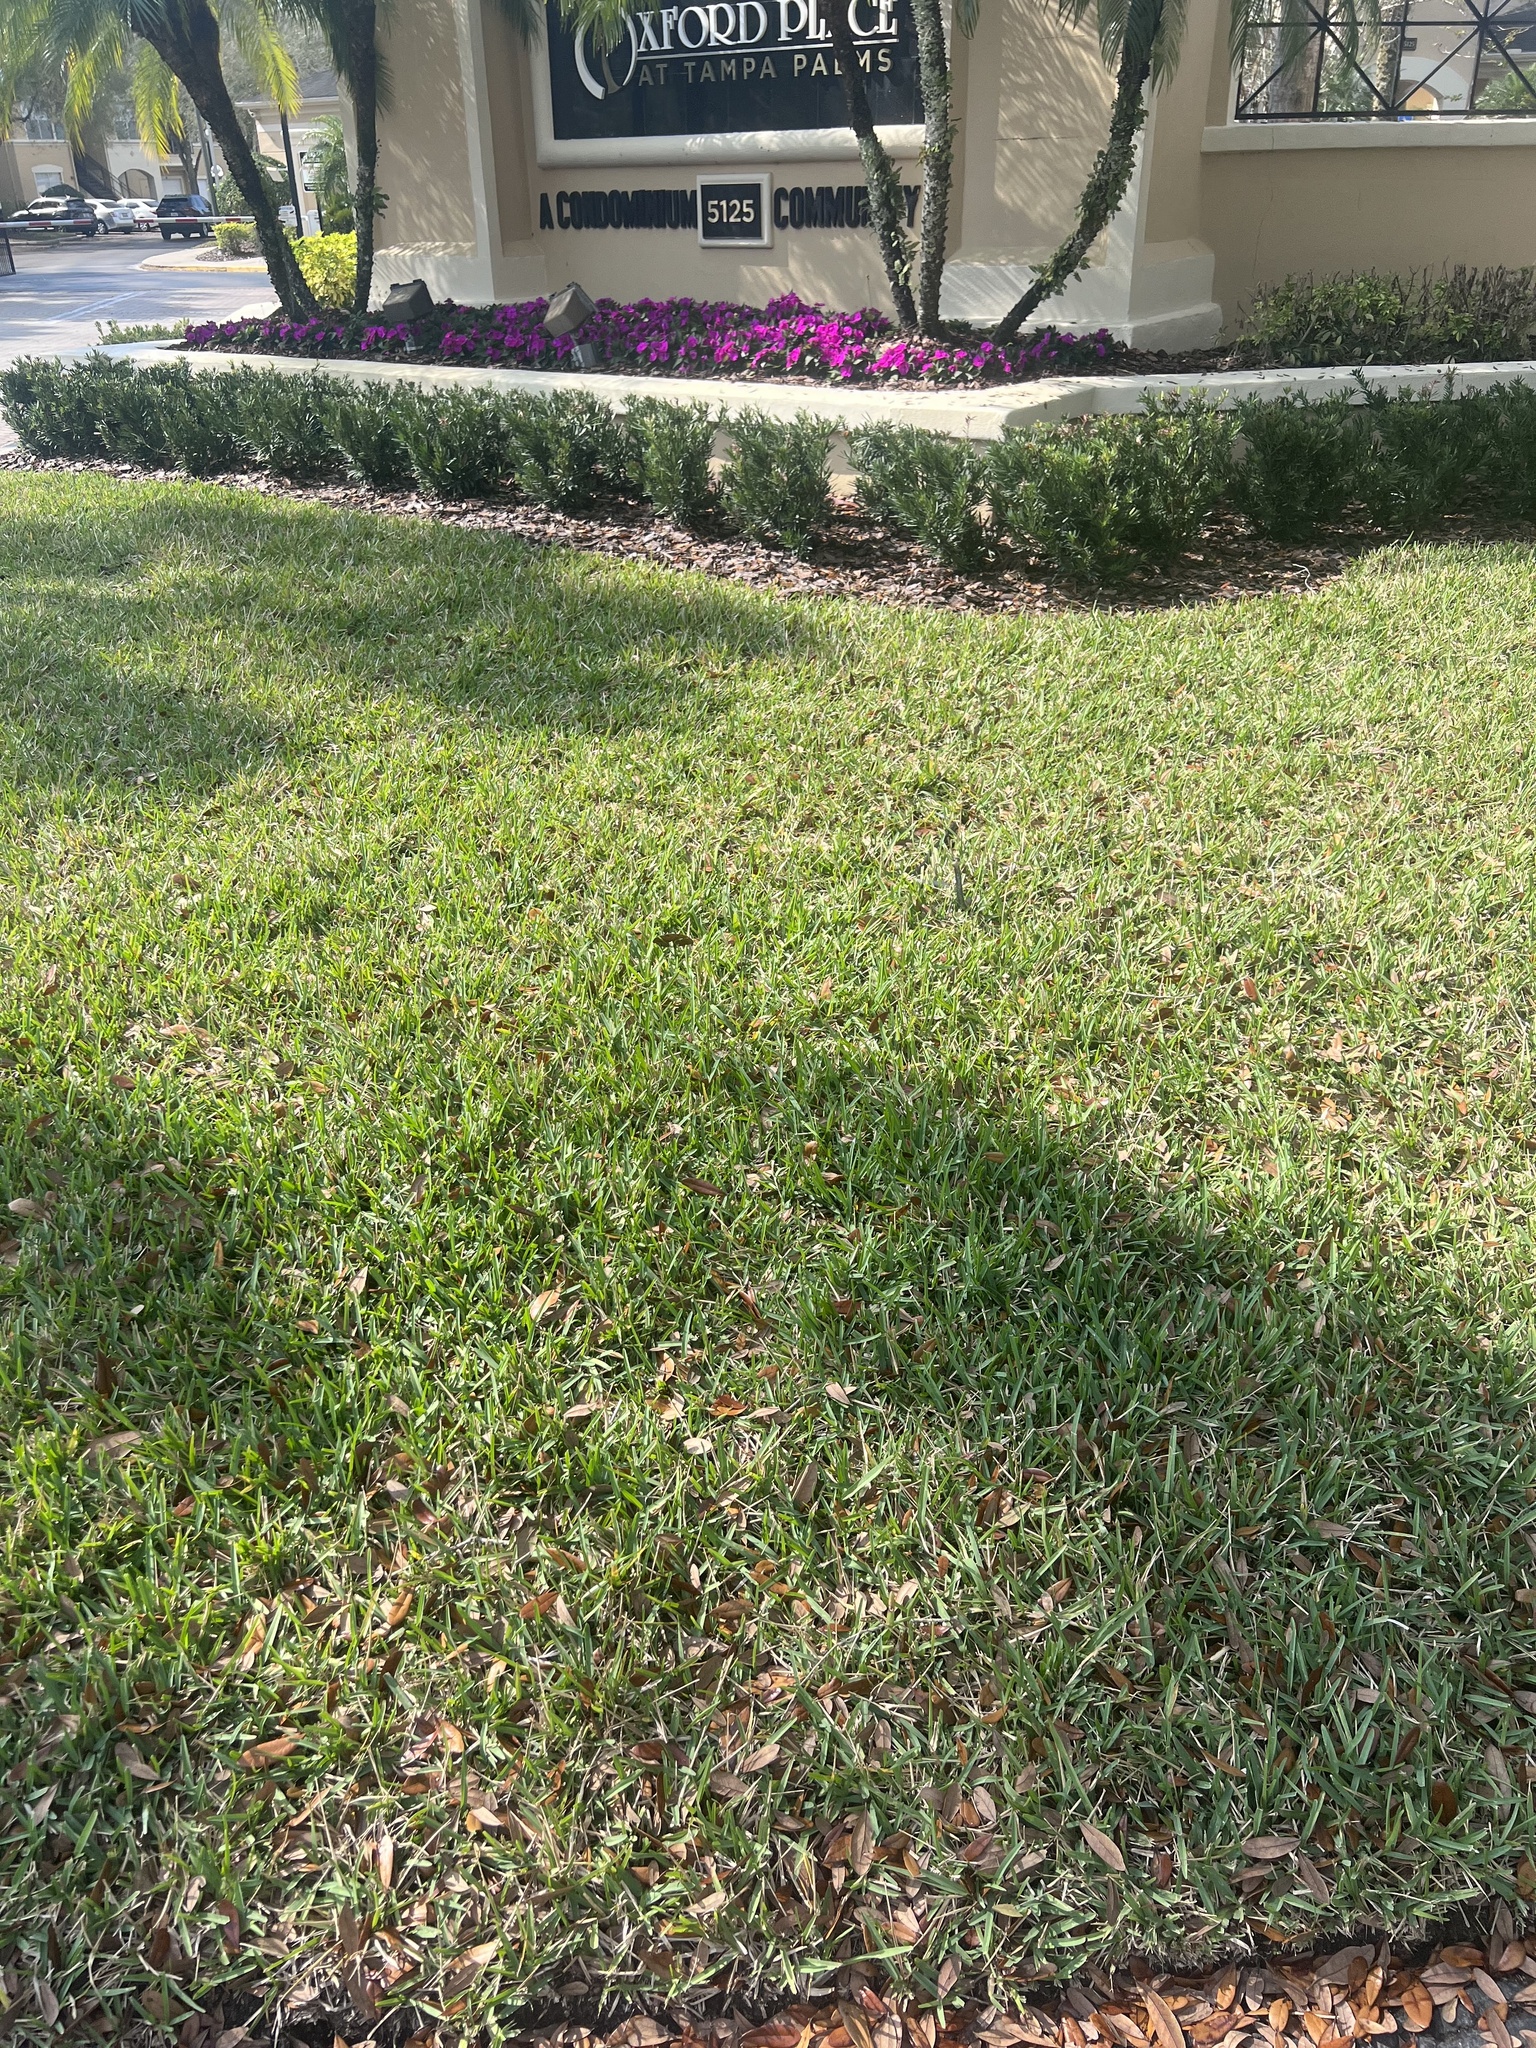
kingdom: Animalia
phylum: Chordata
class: Squamata
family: Colubridae
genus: Coluber
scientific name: Coluber constrictor
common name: Eastern racer
